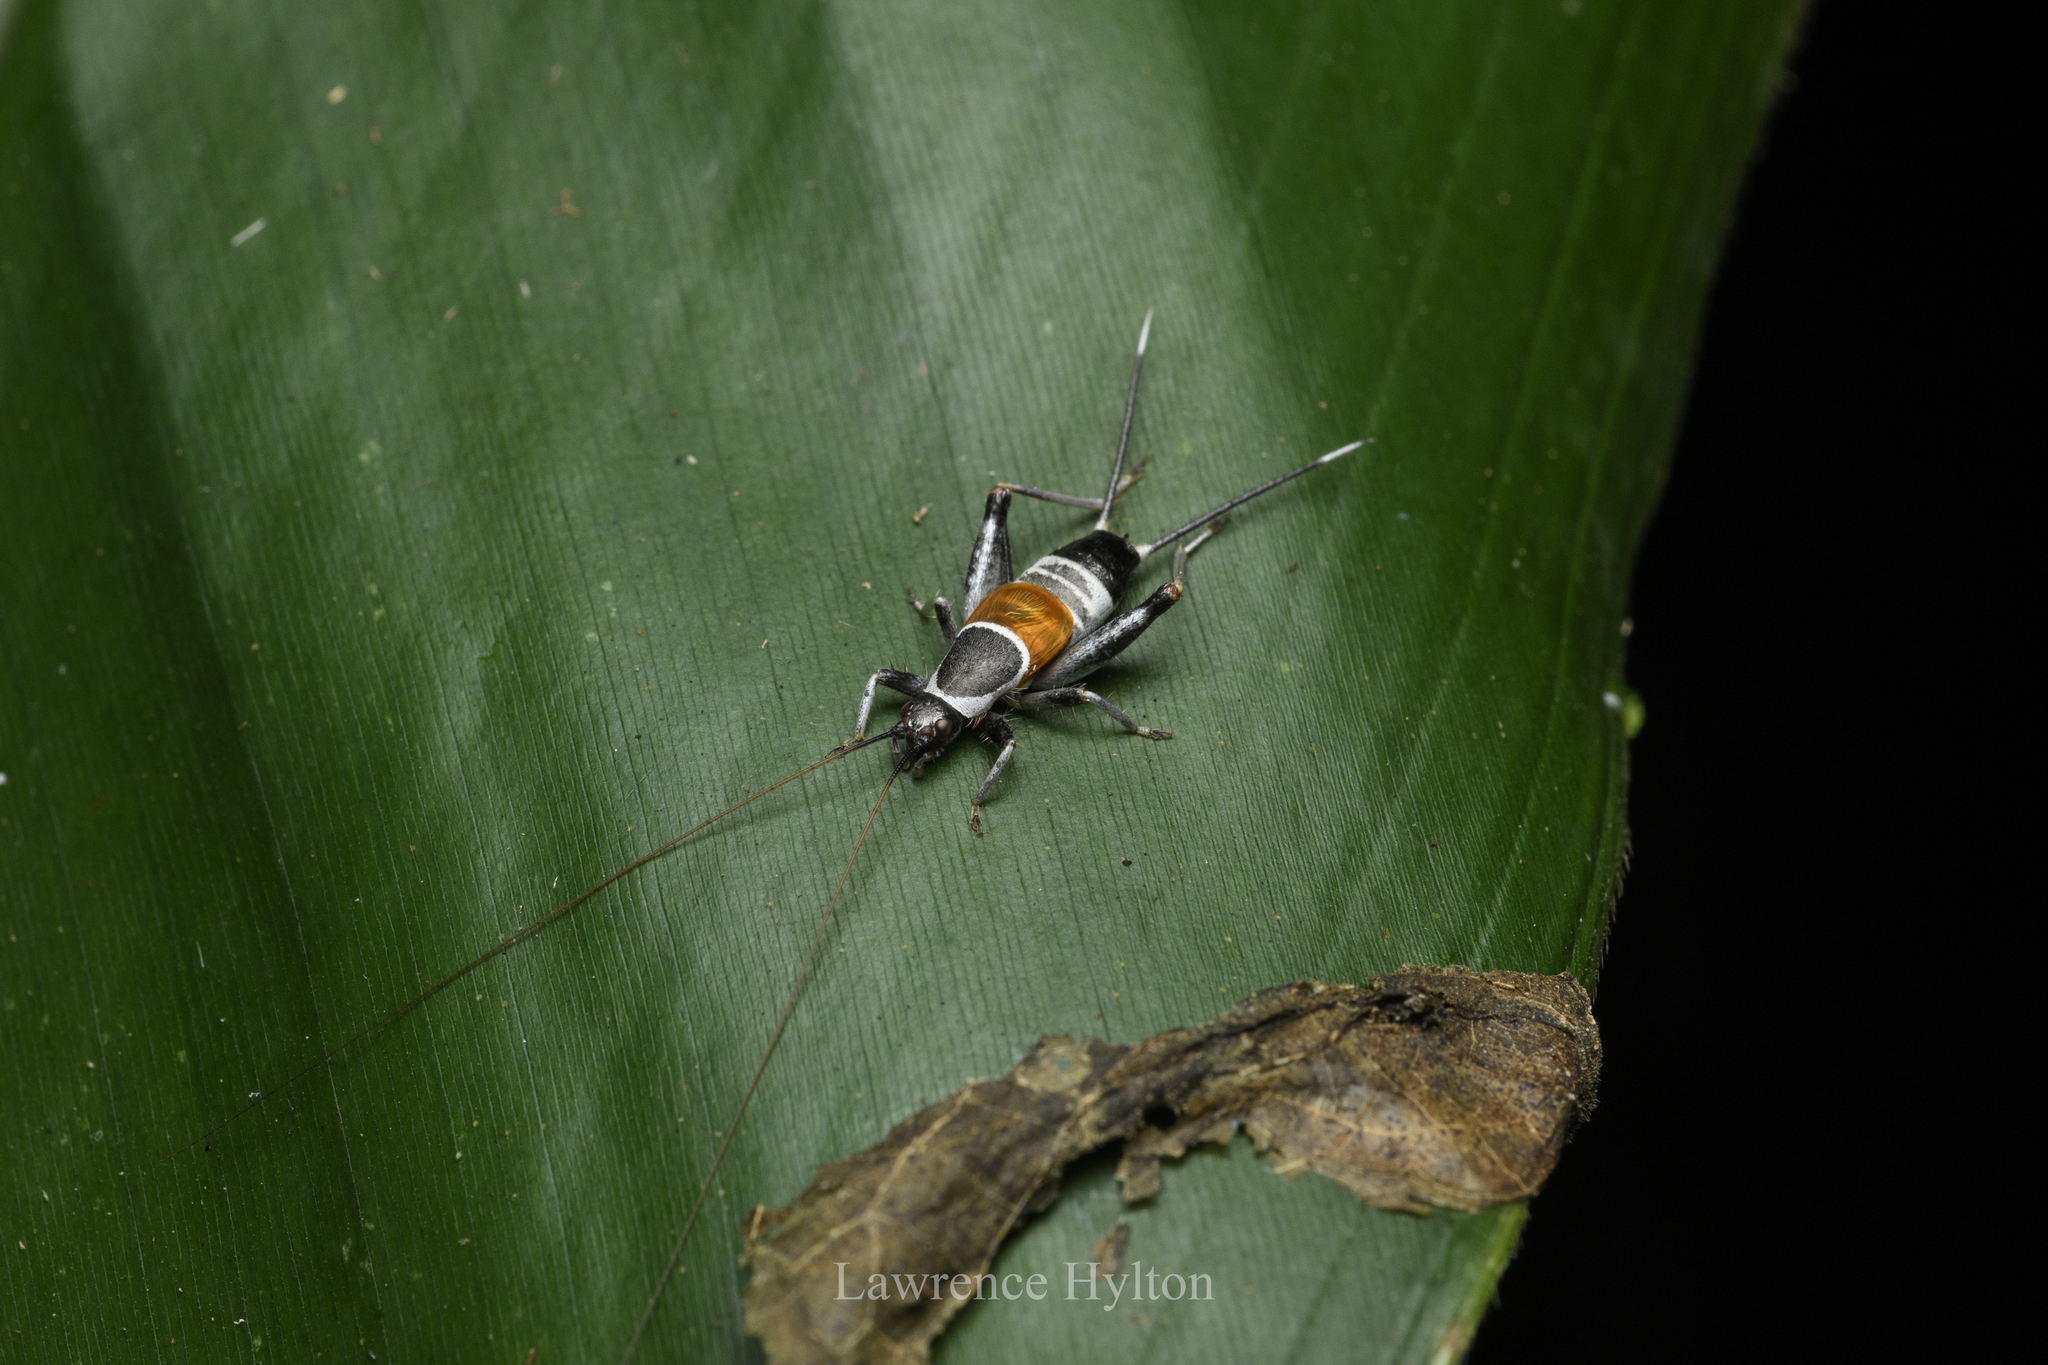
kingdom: Animalia
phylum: Arthropoda
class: Insecta
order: Orthoptera
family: Mogoplistidae
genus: Ornebius
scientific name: Ornebius fuscicerci
